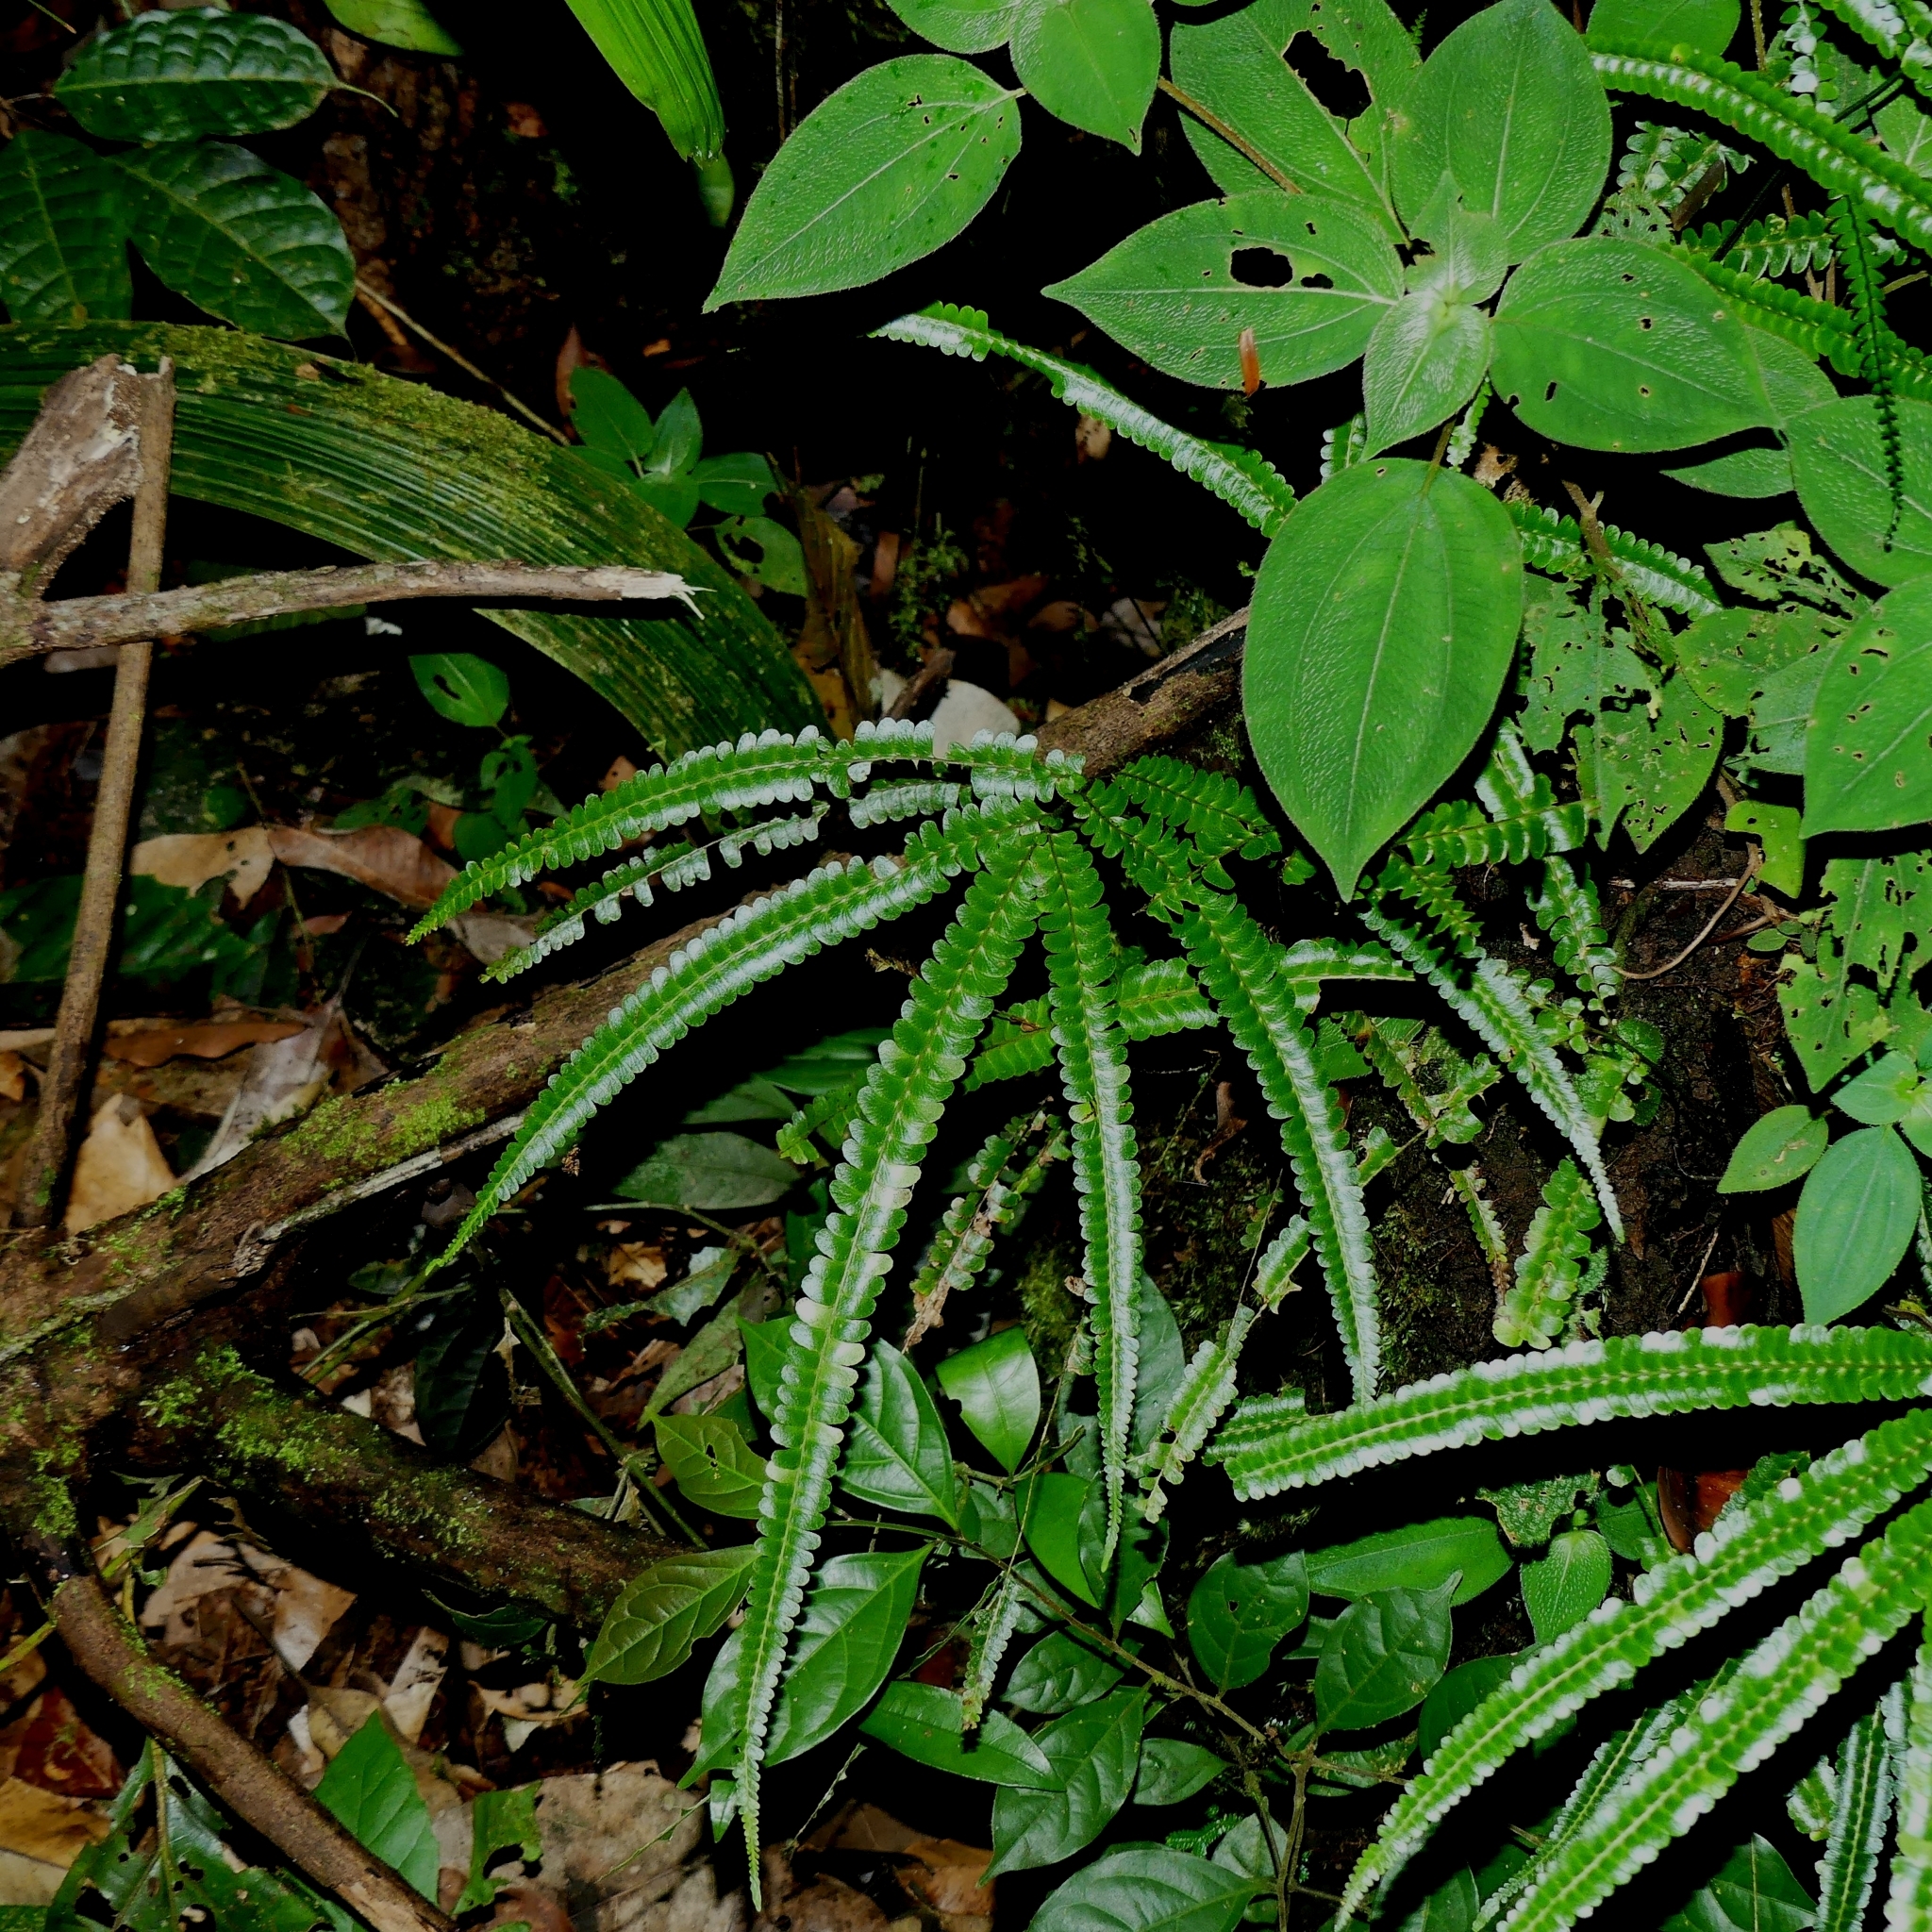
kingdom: Plantae
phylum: Tracheophyta
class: Polypodiopsida
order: Polypodiales
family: Lindsaeaceae
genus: Lindsaea
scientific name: Lindsaea guianensis
